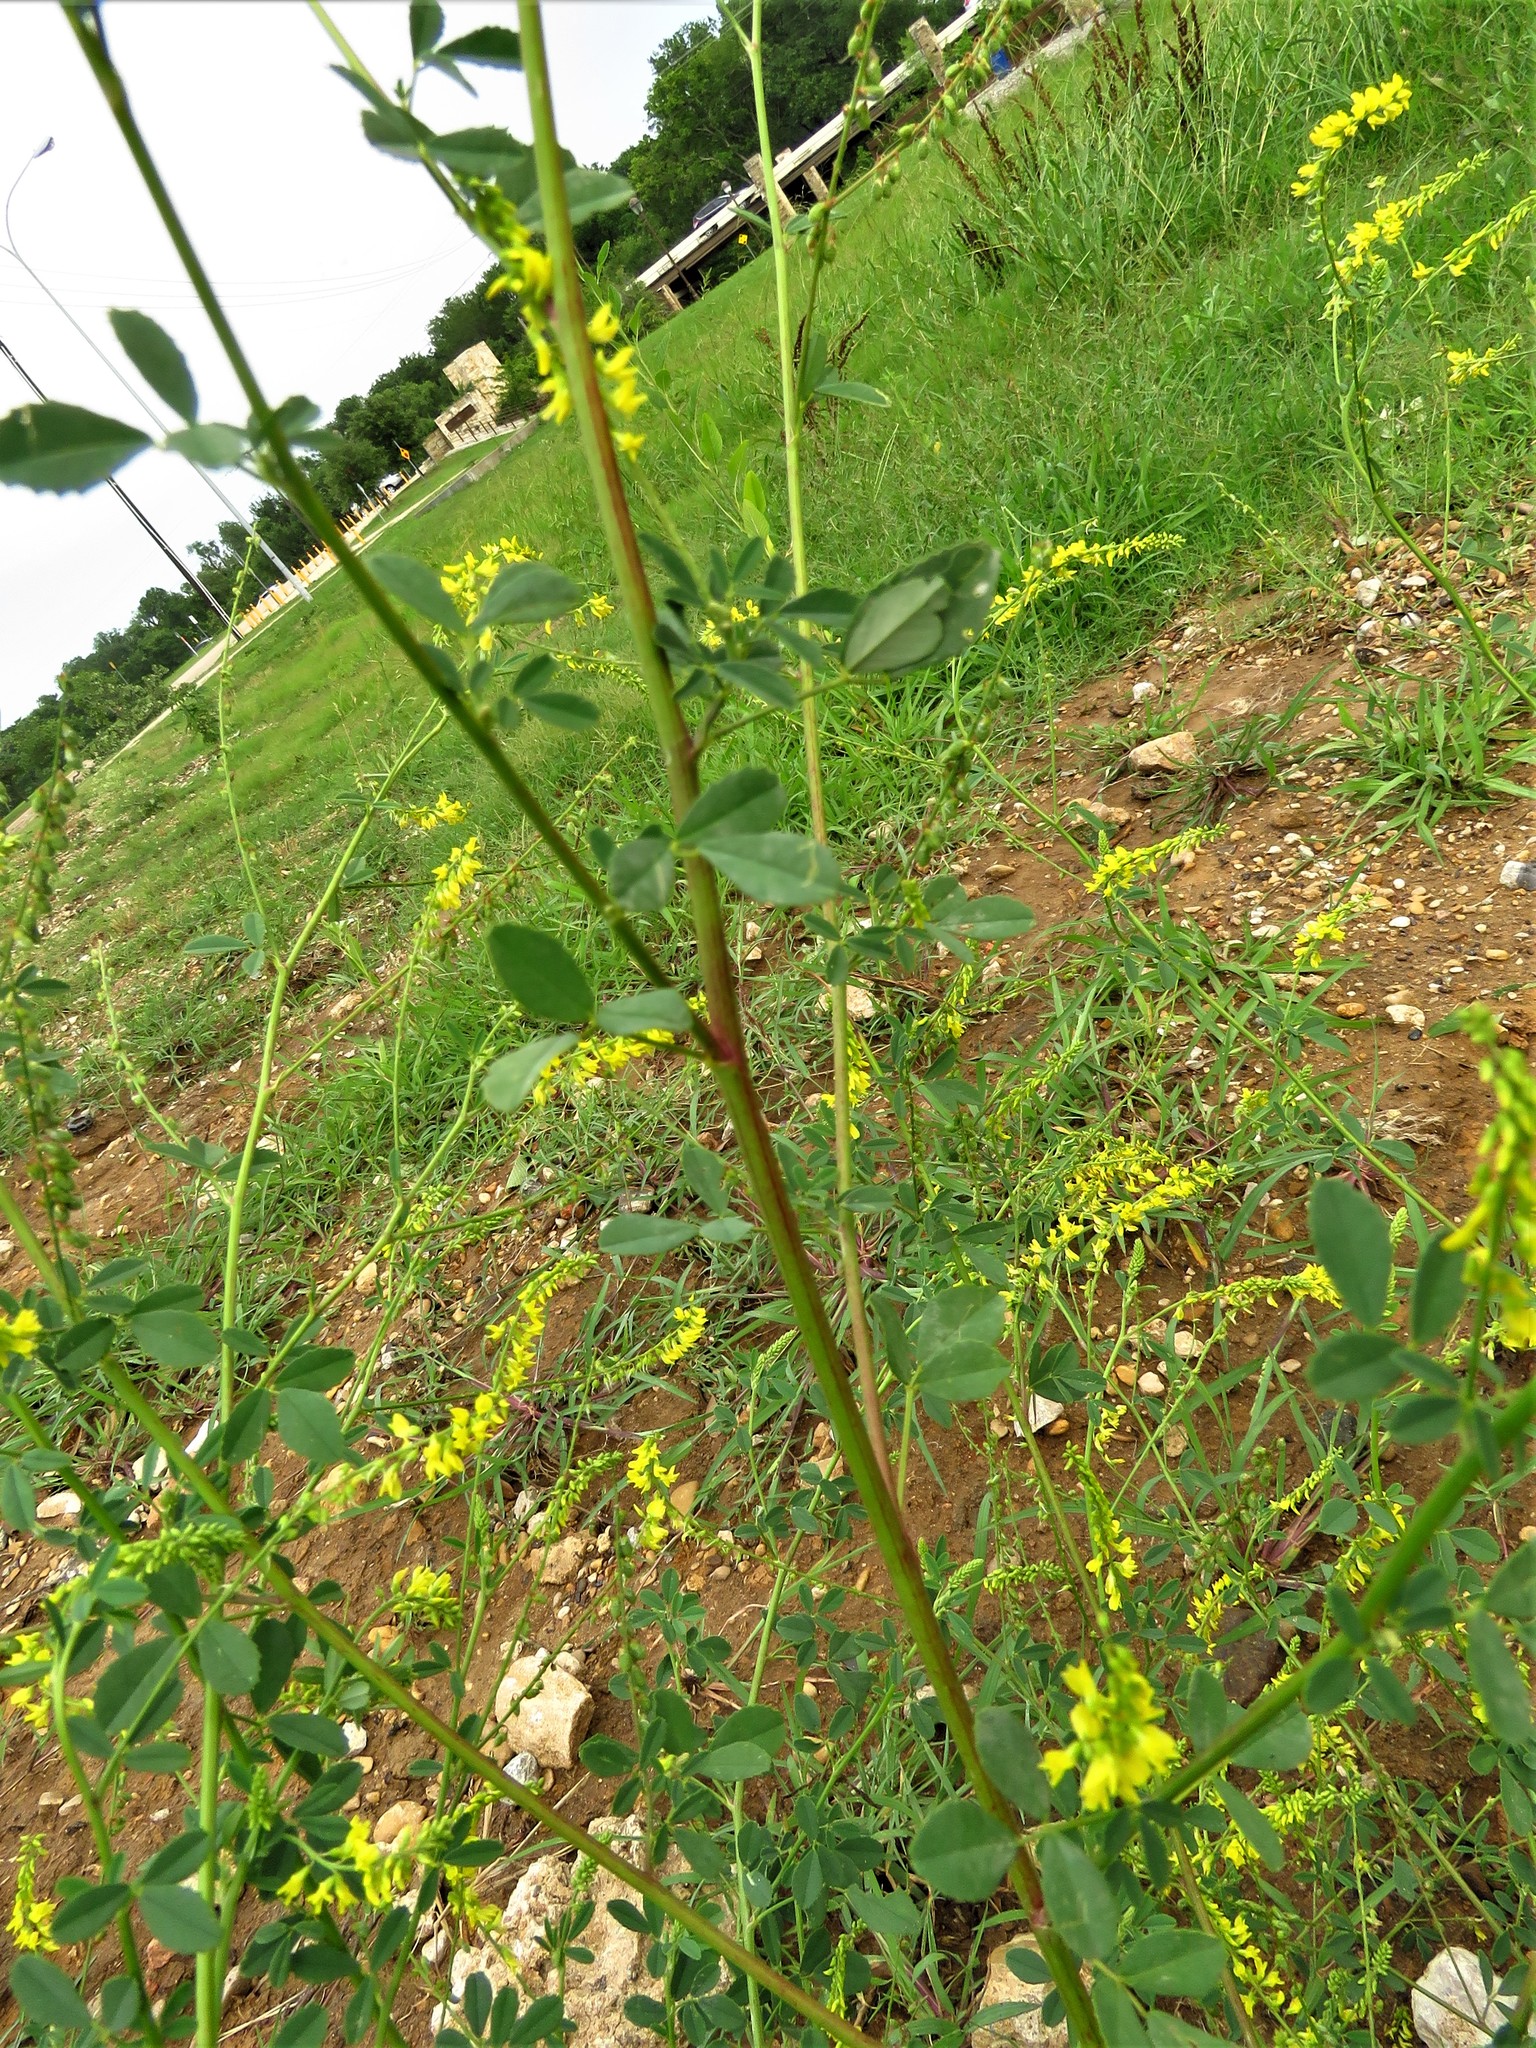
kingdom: Plantae
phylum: Tracheophyta
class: Magnoliopsida
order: Fabales
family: Fabaceae
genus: Melilotus
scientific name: Melilotus officinalis
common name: Sweetclover
